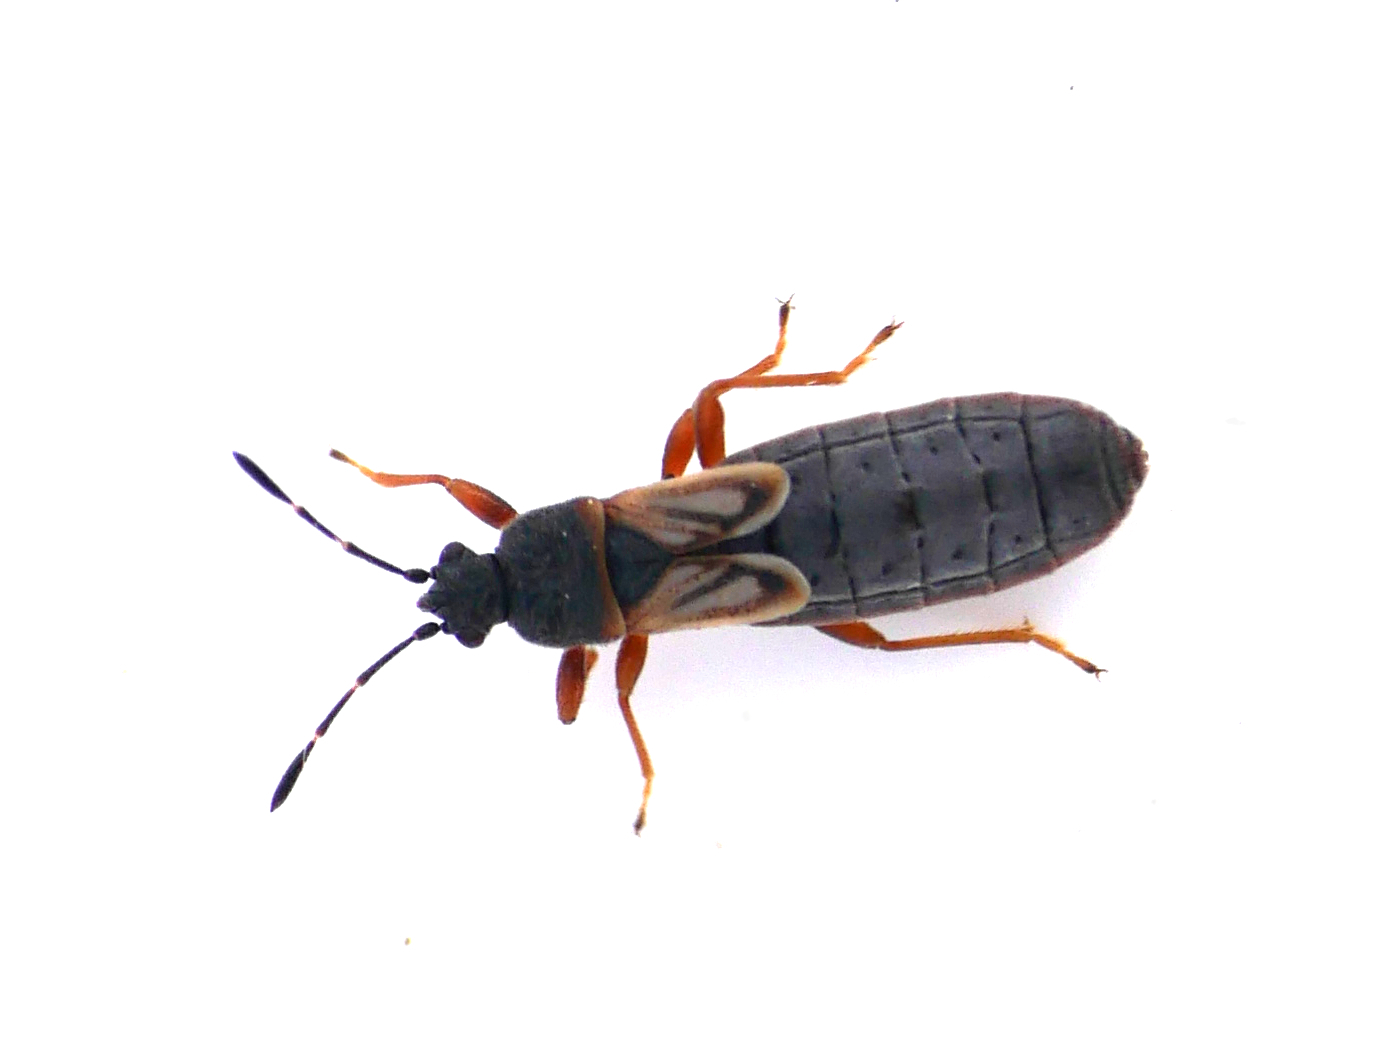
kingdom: Animalia
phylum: Arthropoda
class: Insecta
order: Hemiptera
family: Blissidae
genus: Ischnodemus
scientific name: Ischnodemus sabuleti
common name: European cinchbug
